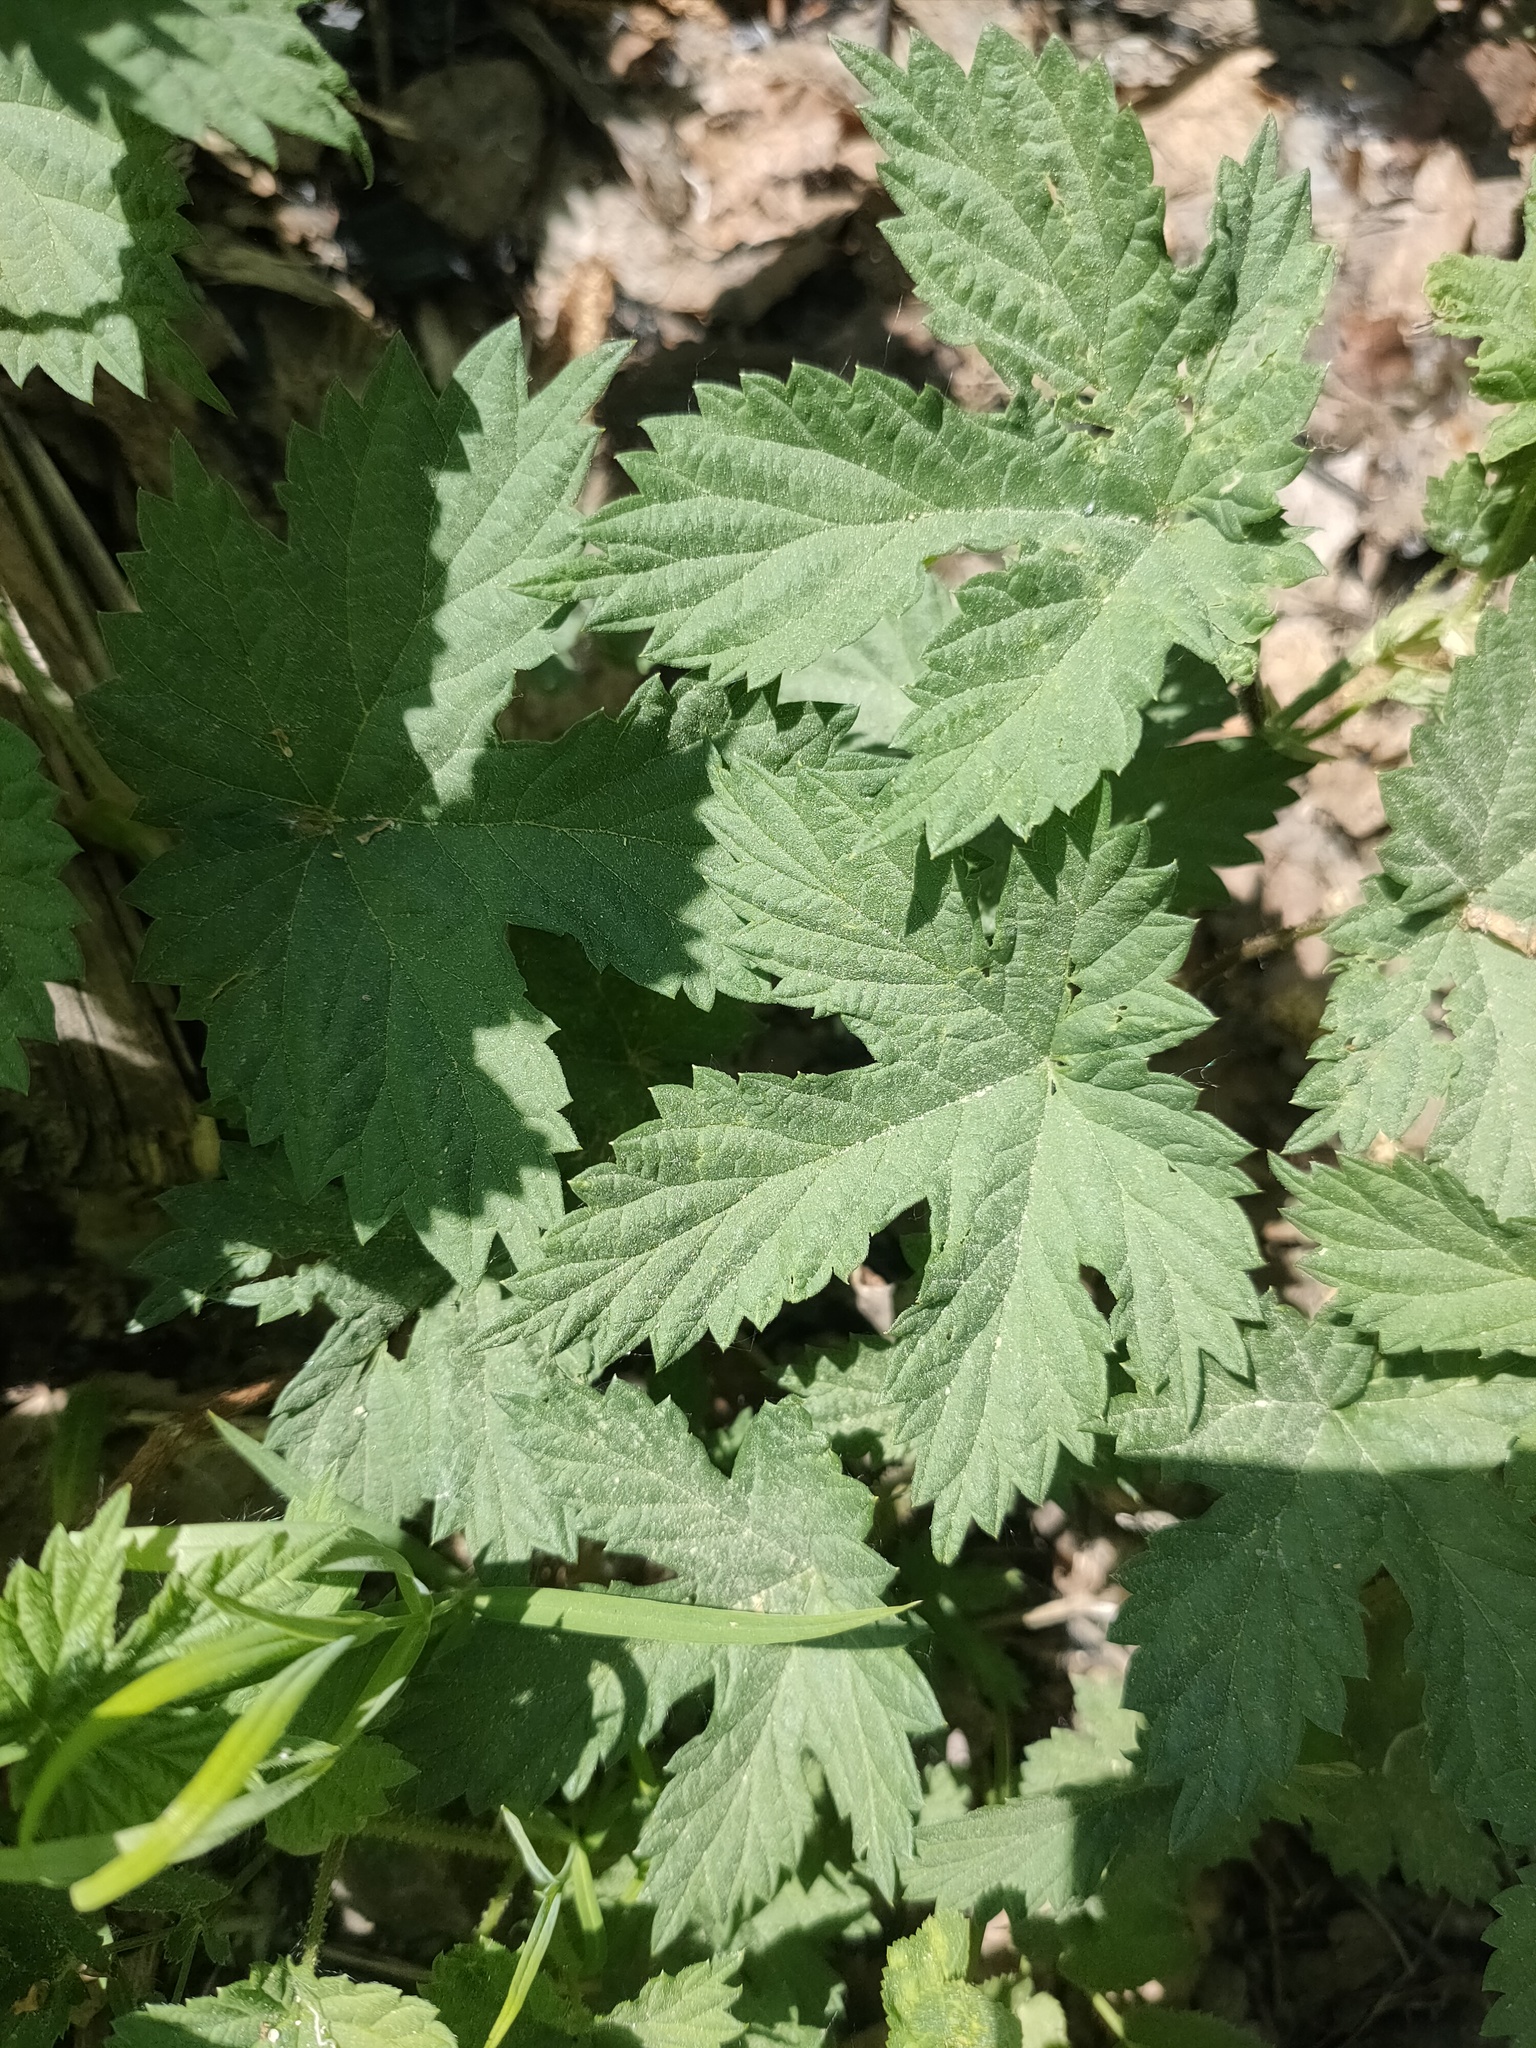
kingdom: Plantae
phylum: Tracheophyta
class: Magnoliopsida
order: Rosales
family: Cannabaceae
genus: Humulus
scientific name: Humulus lupulus
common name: Hop
